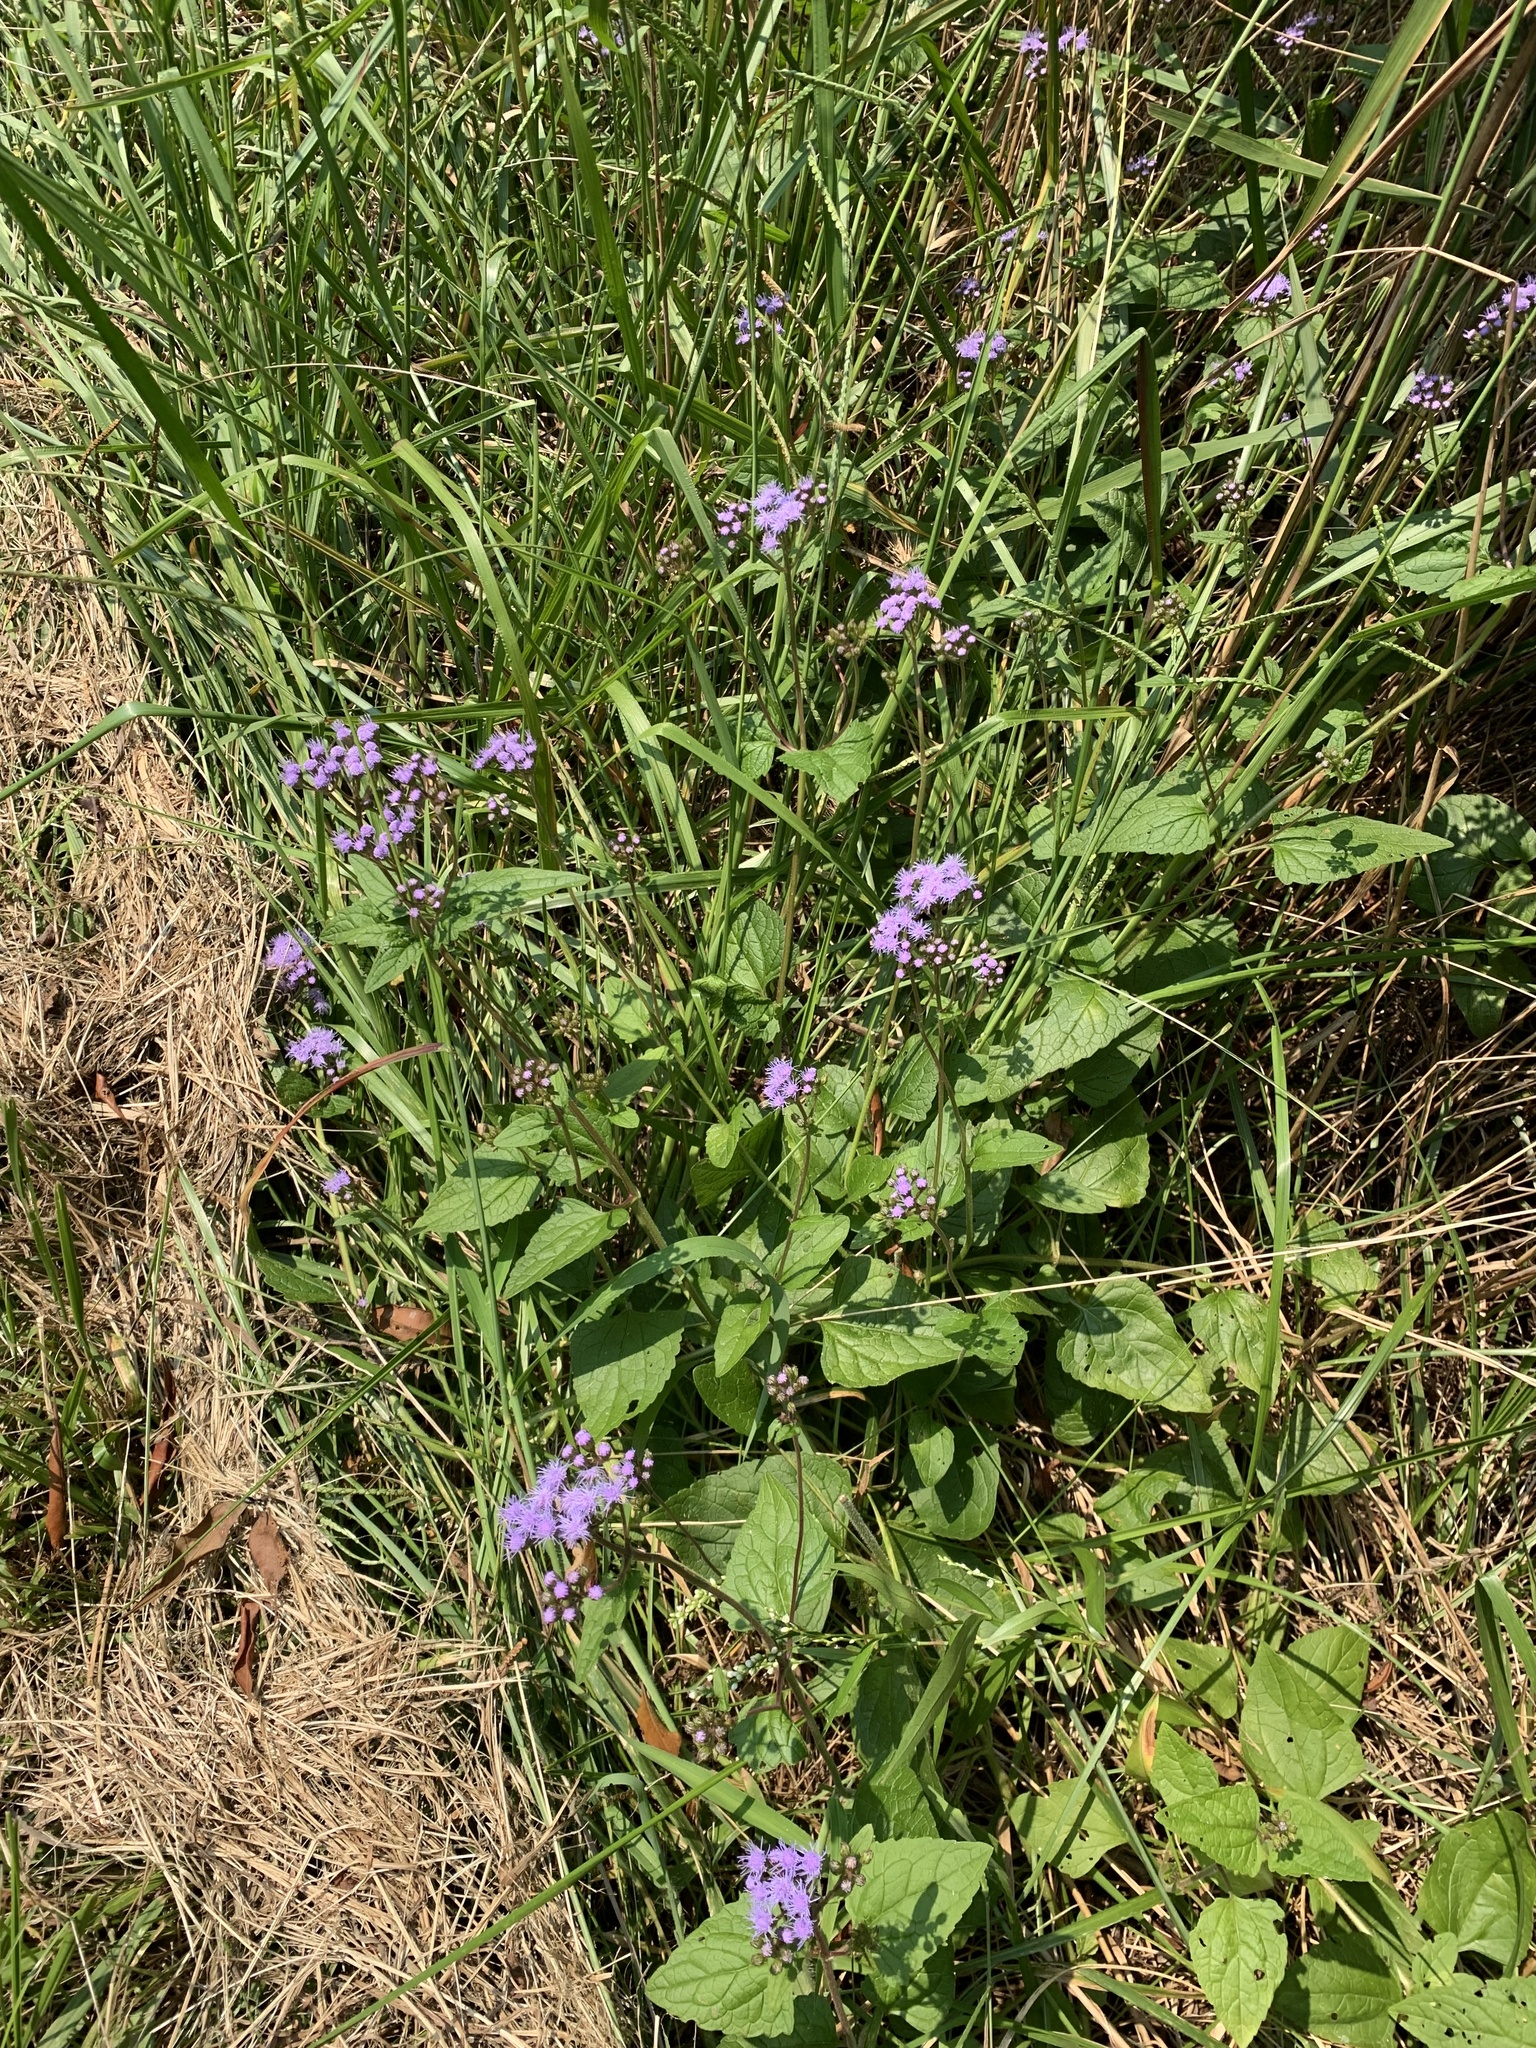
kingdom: Plantae
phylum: Tracheophyta
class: Magnoliopsida
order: Asterales
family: Asteraceae
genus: Conoclinium
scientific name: Conoclinium coelestinum
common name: Blue mistflower
